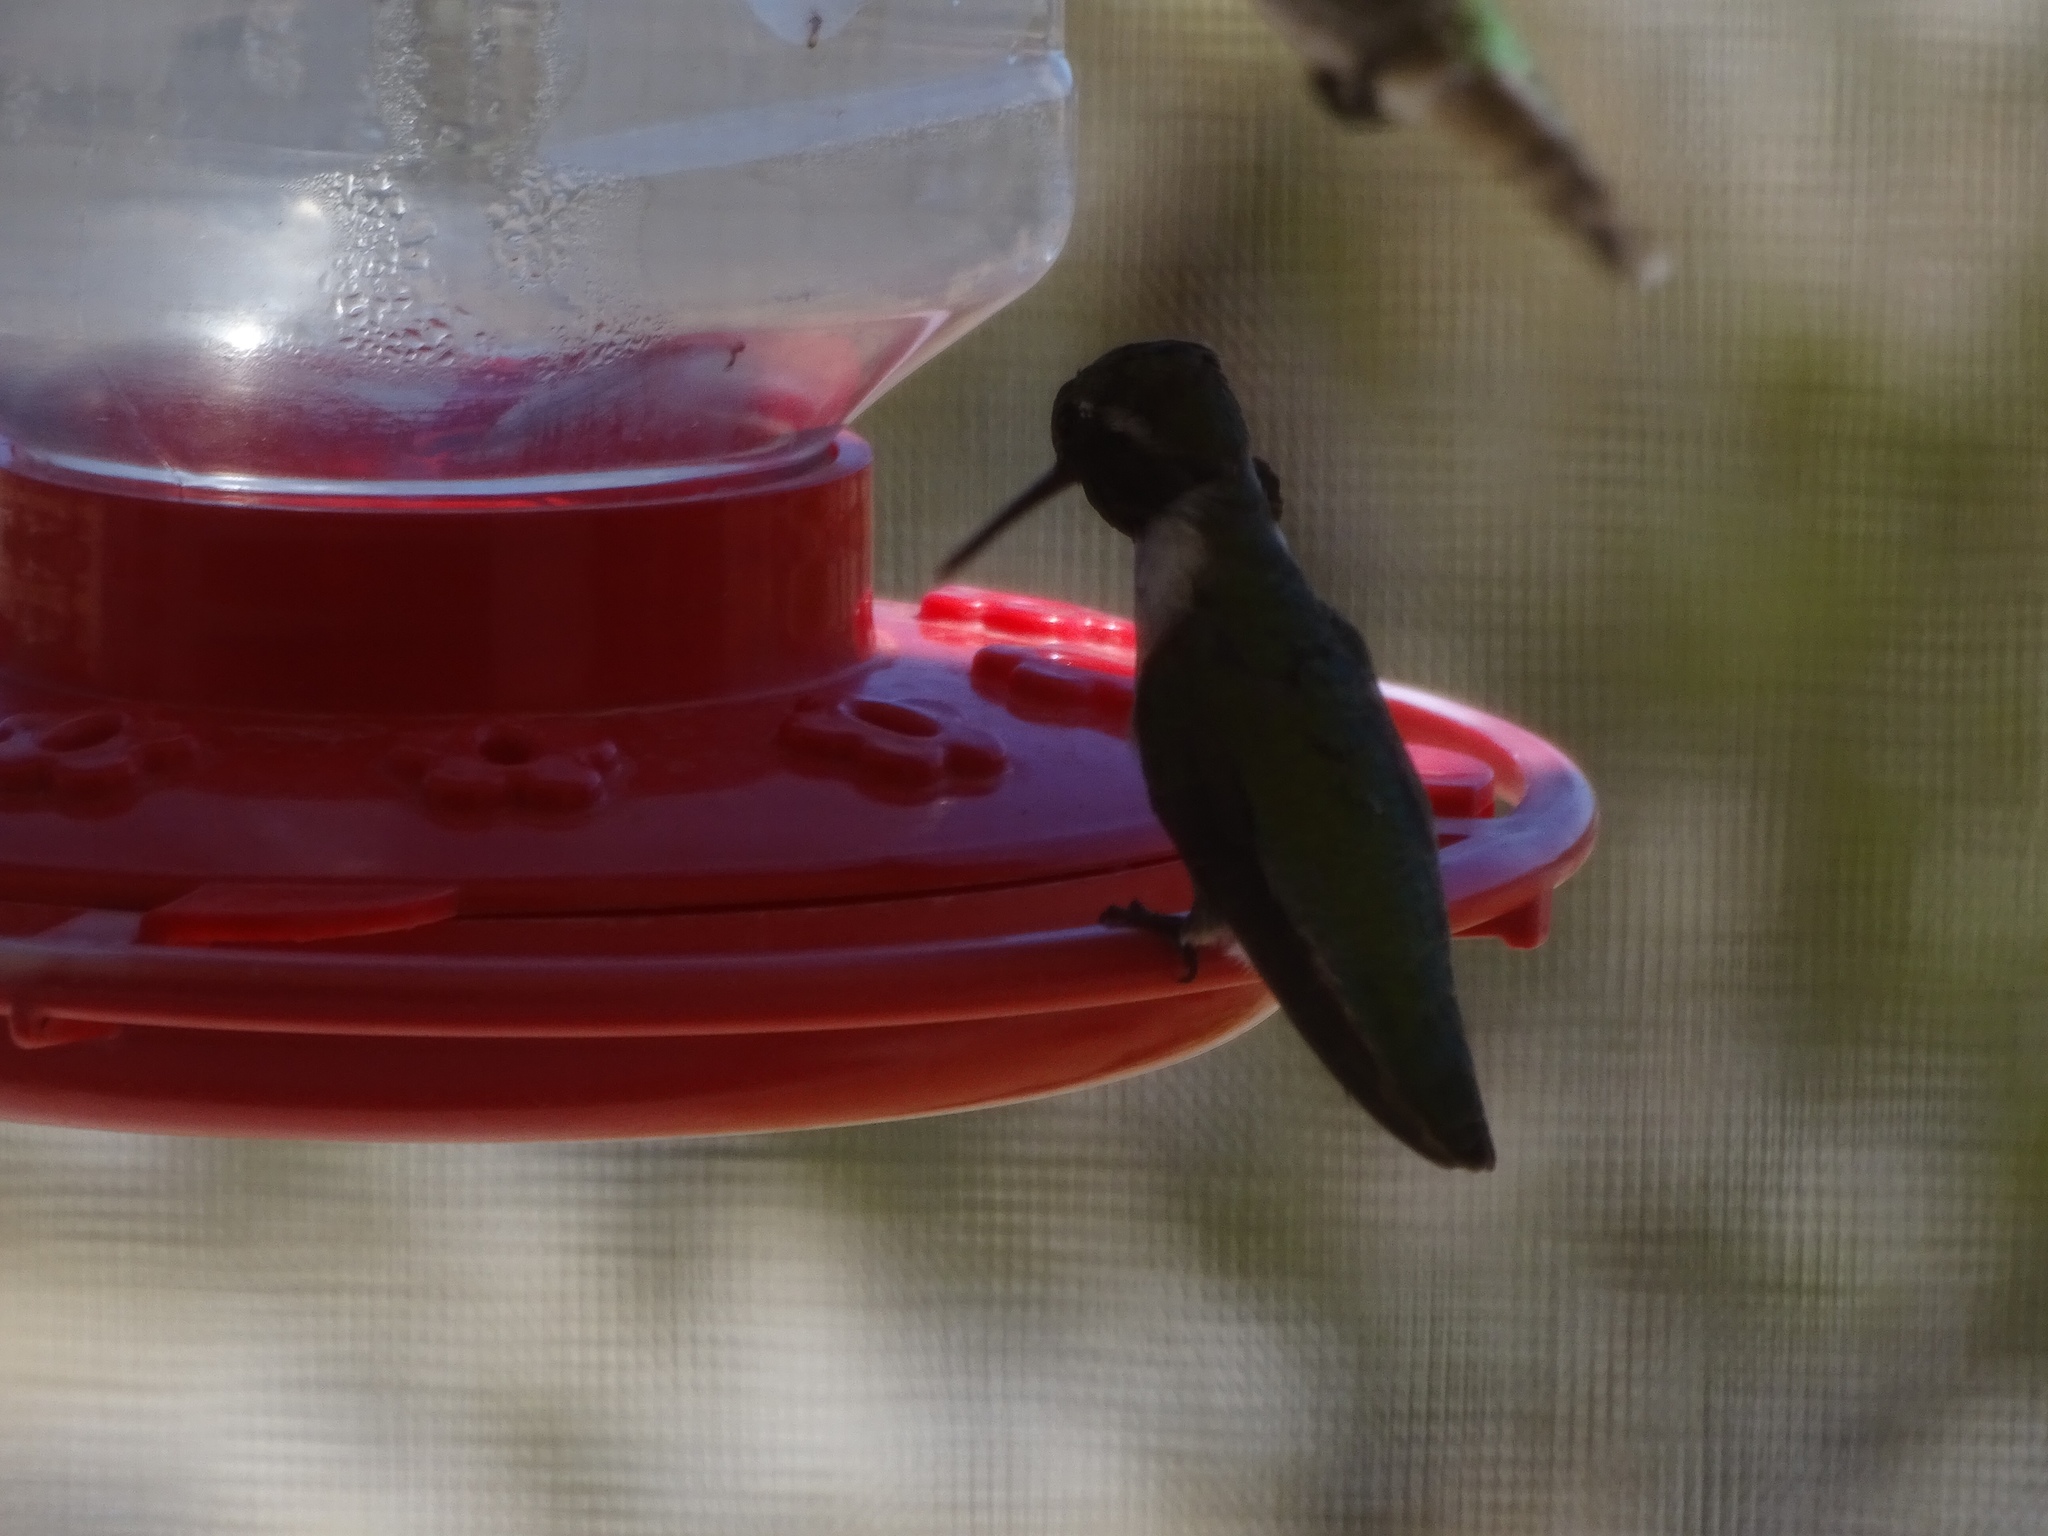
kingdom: Animalia
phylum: Chordata
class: Aves
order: Apodiformes
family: Trochilidae
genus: Calypte
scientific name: Calypte costae
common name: Costa's hummingbird
